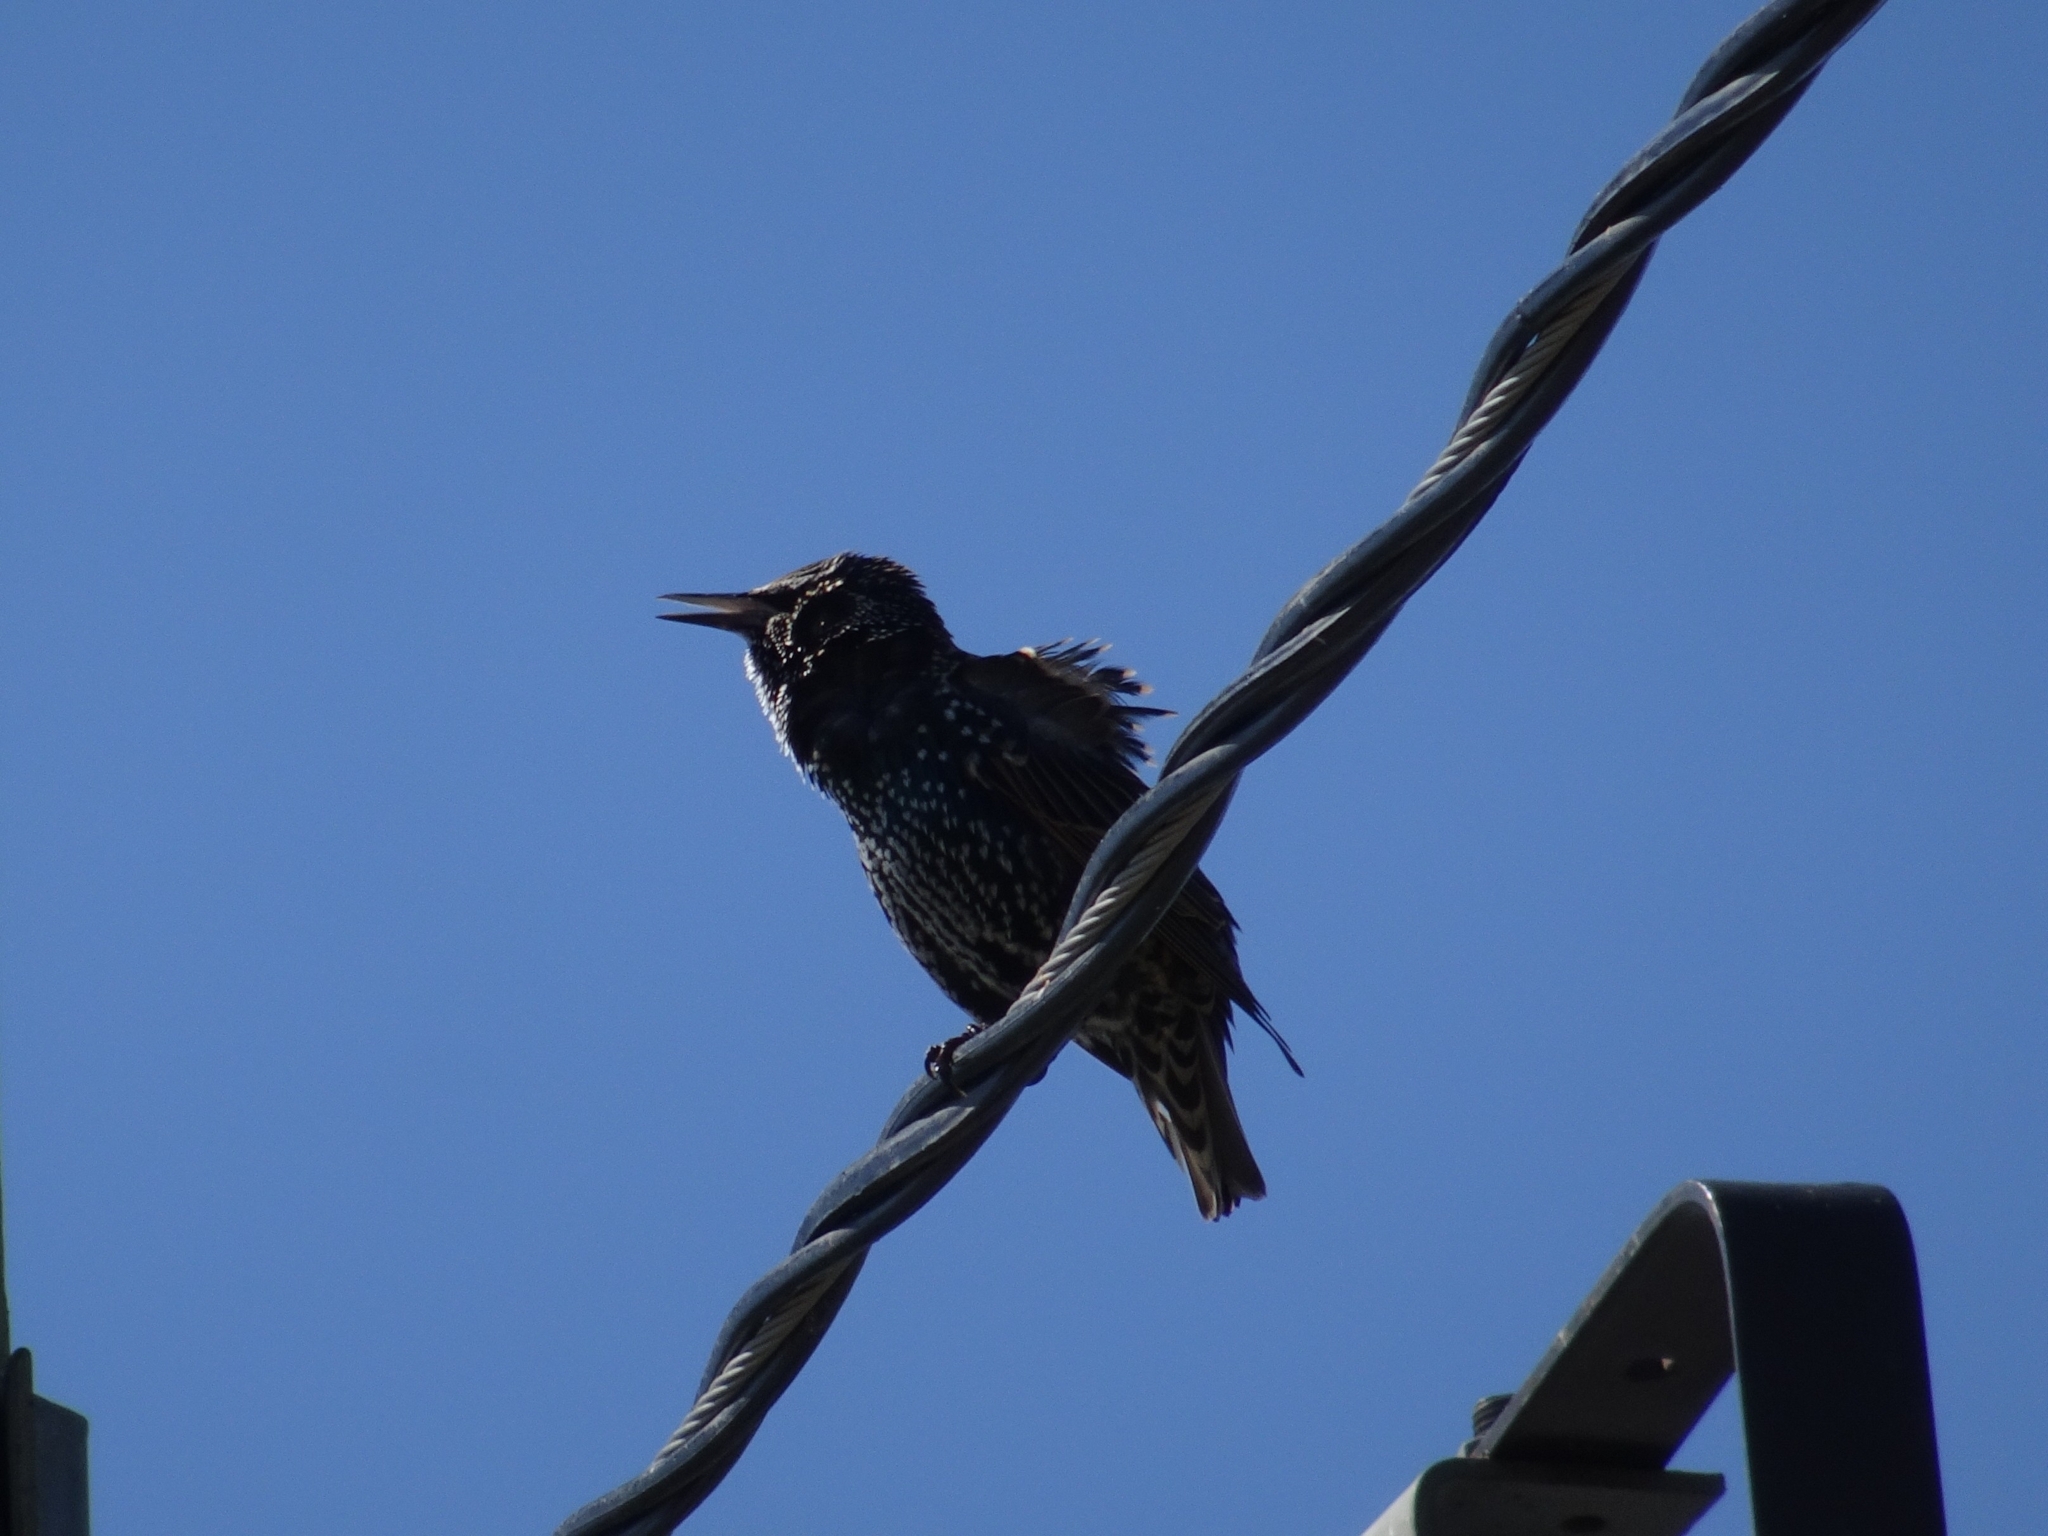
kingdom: Animalia
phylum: Chordata
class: Aves
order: Passeriformes
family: Sturnidae
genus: Sturnus
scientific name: Sturnus vulgaris
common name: Common starling
